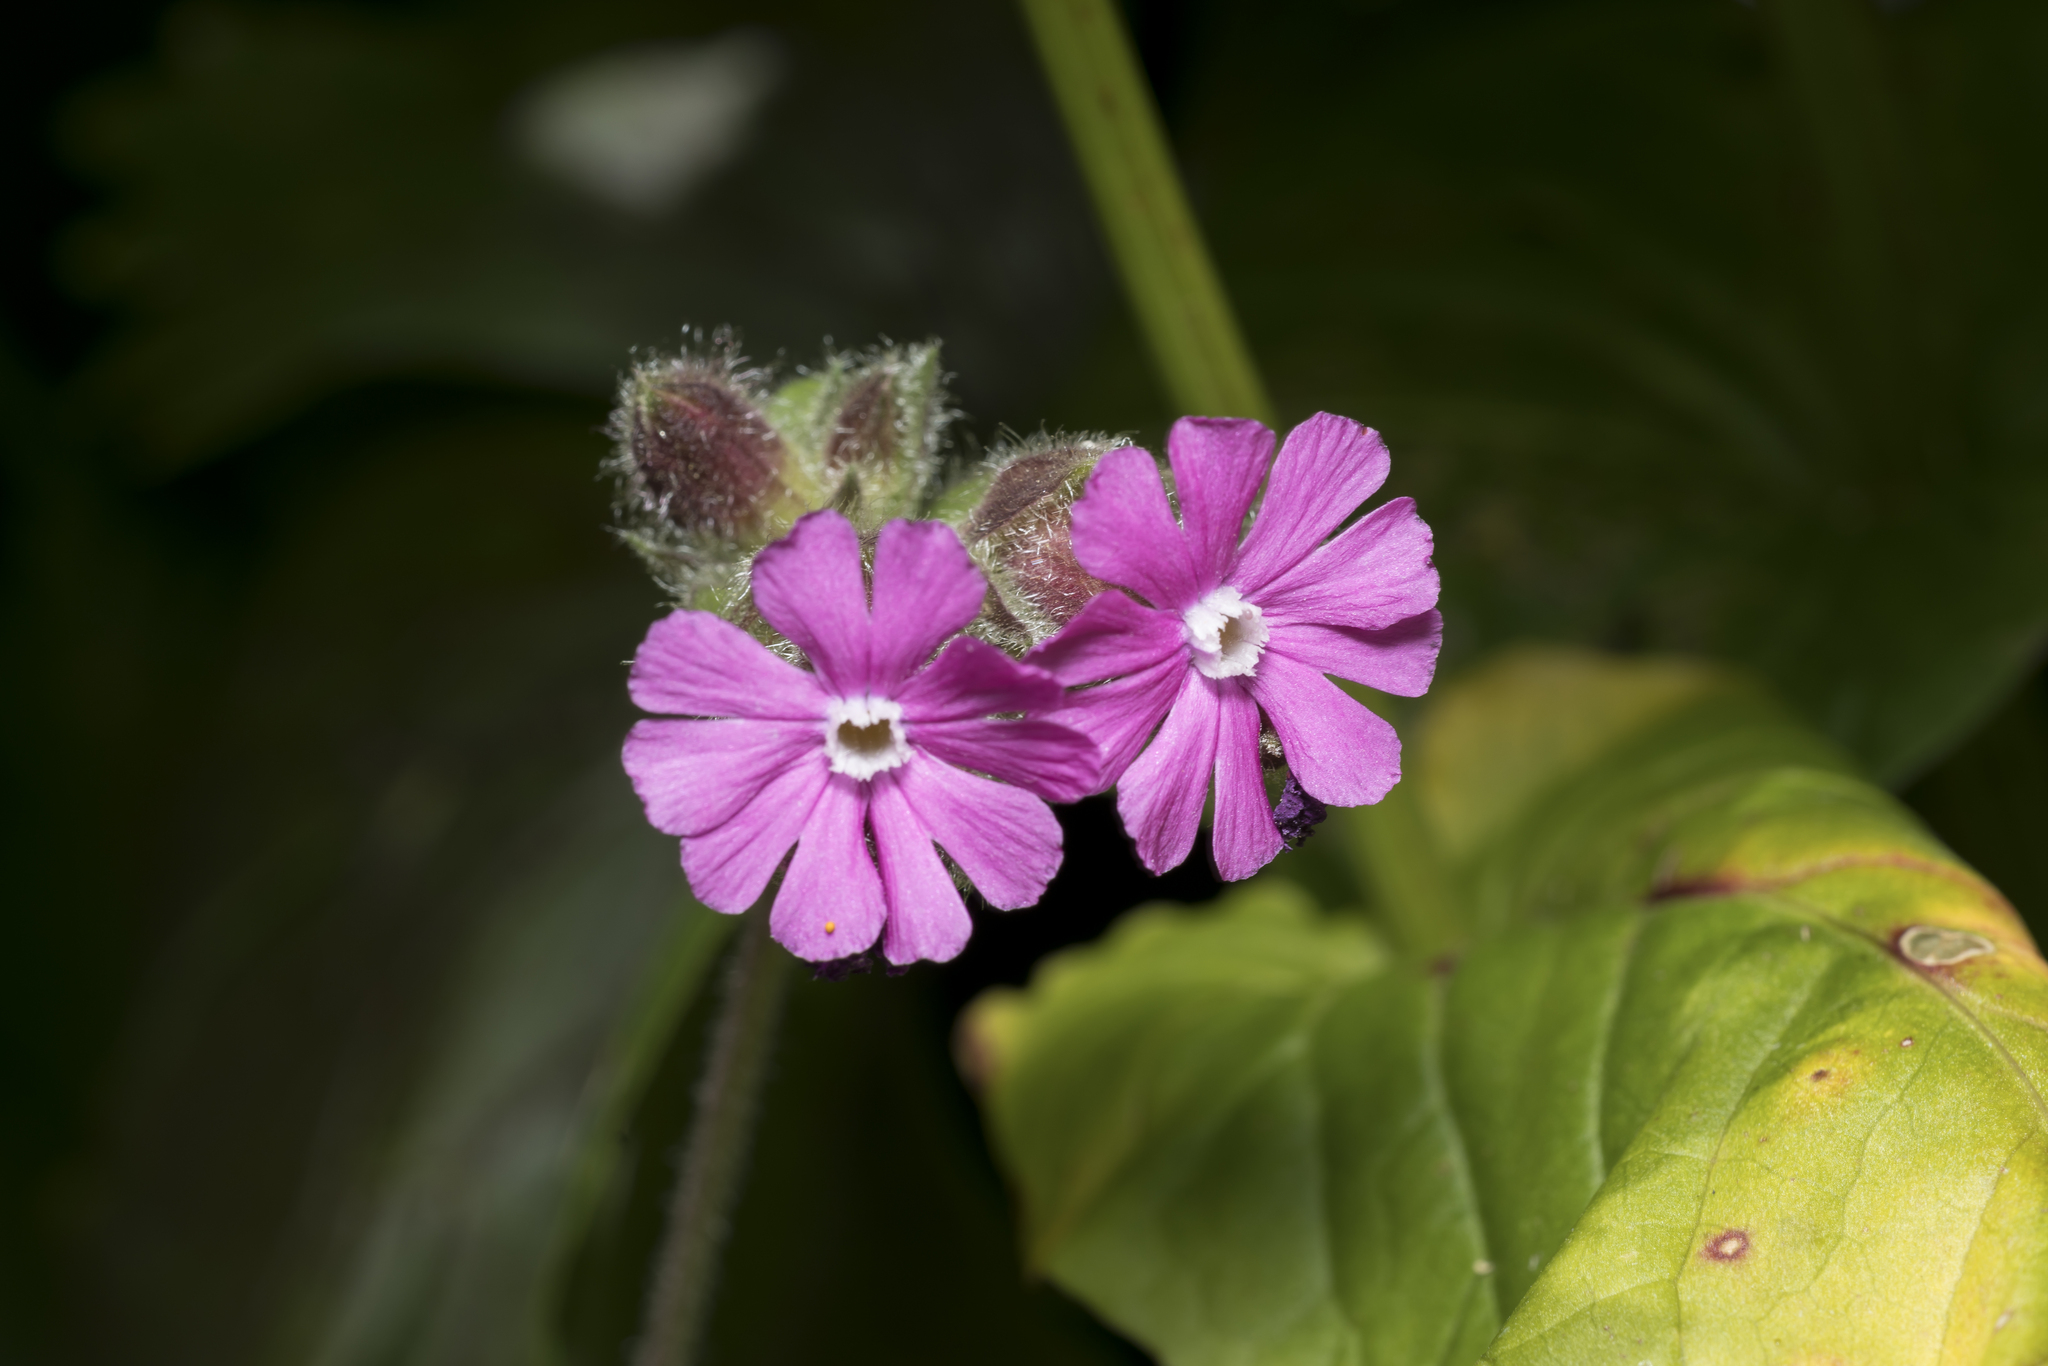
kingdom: Plantae
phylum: Tracheophyta
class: Magnoliopsida
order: Caryophyllales
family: Caryophyllaceae
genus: Silene
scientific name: Silene dioica
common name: Red campion
